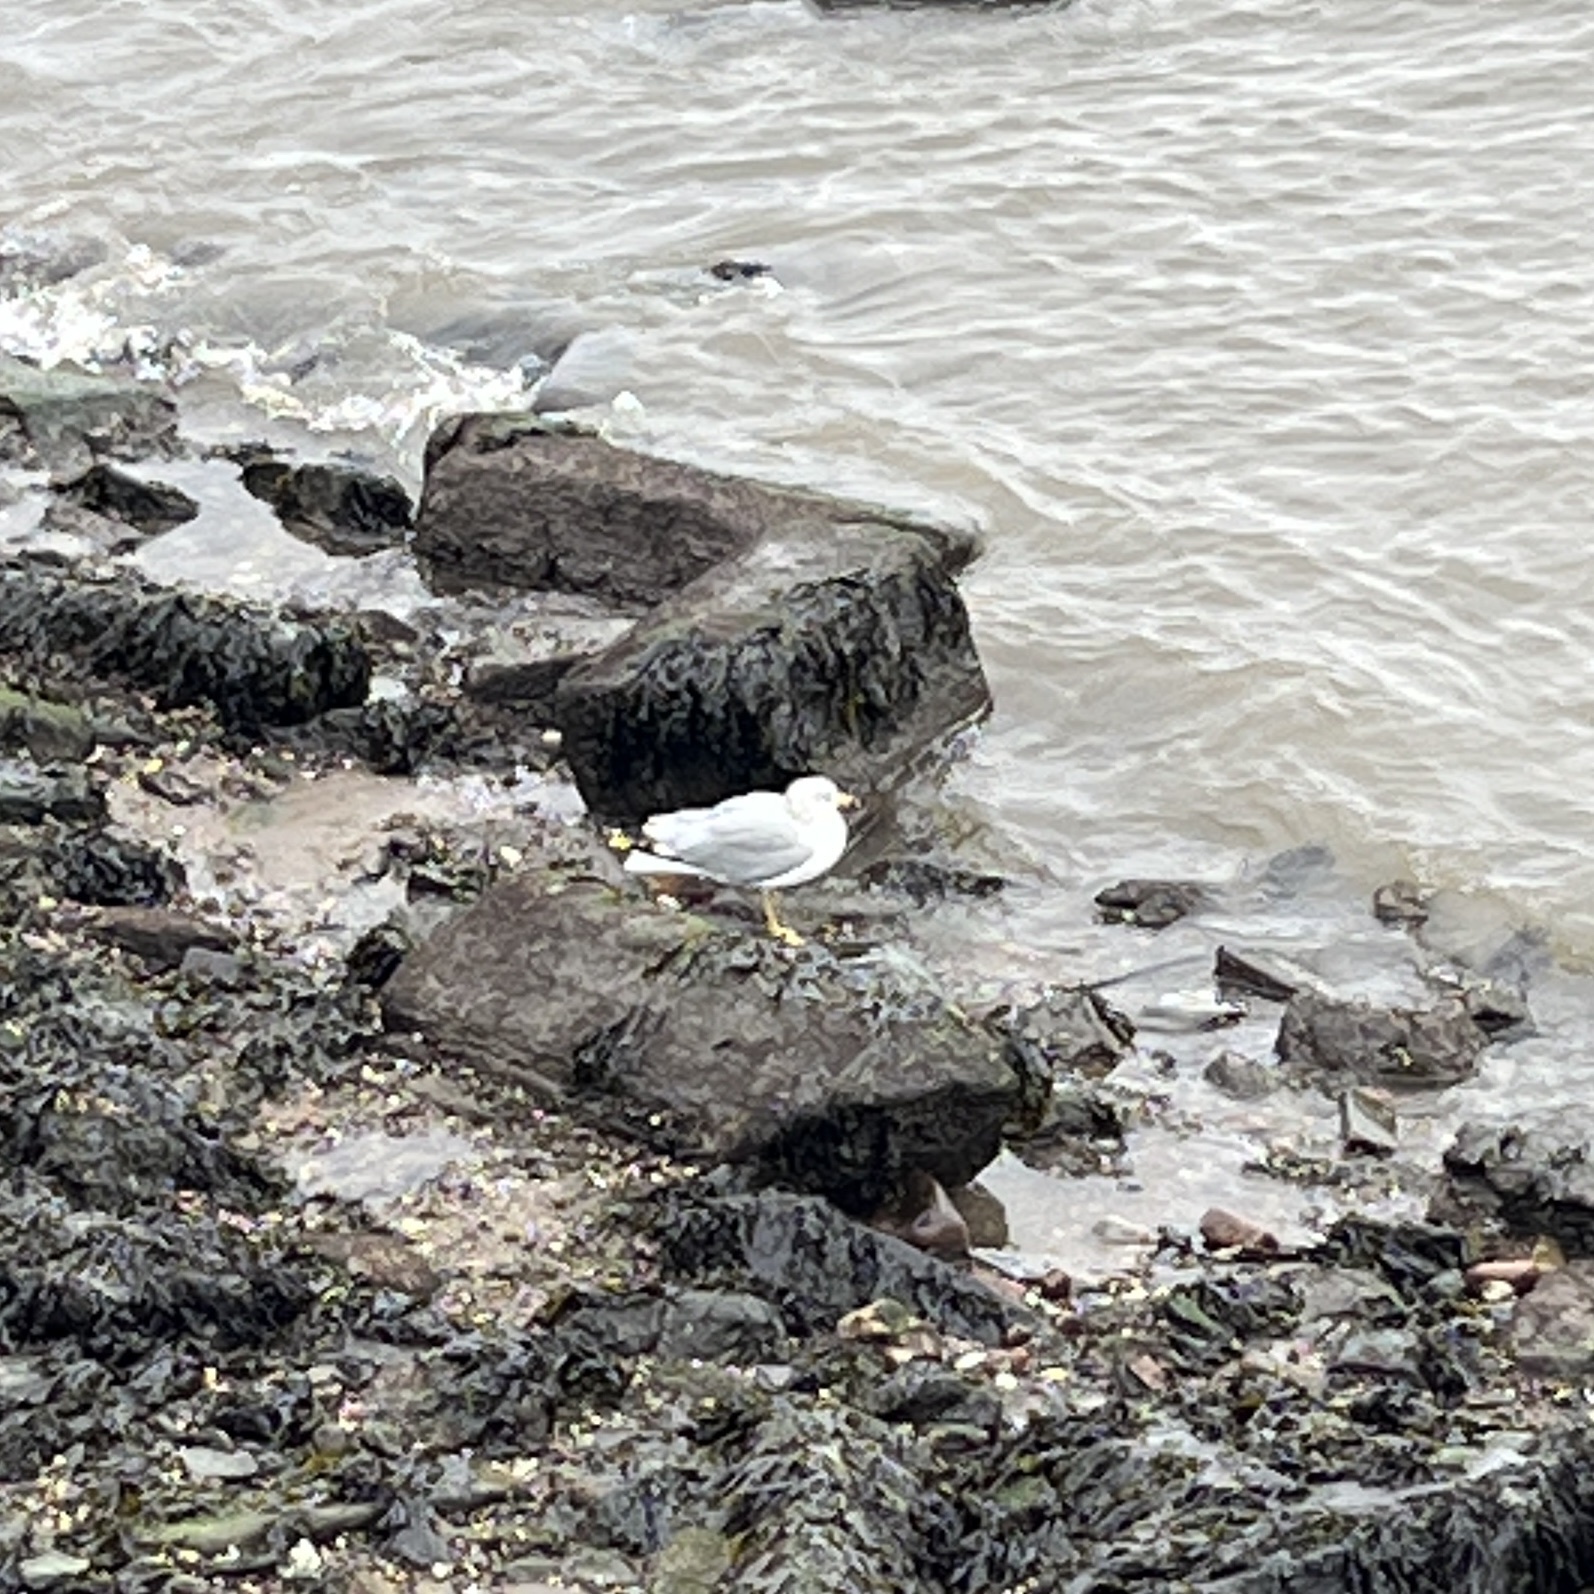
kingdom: Animalia
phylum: Chordata
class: Aves
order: Charadriiformes
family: Laridae
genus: Larus
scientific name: Larus delawarensis
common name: Ring-billed gull
